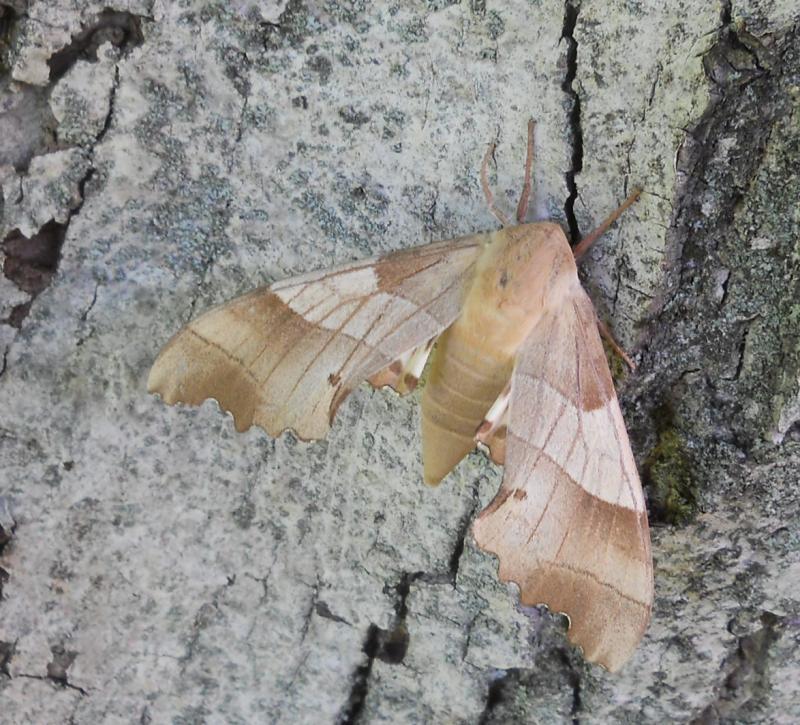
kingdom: Animalia
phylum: Arthropoda
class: Insecta
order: Lepidoptera
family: Sphingidae
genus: Marumba
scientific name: Marumba quercus
